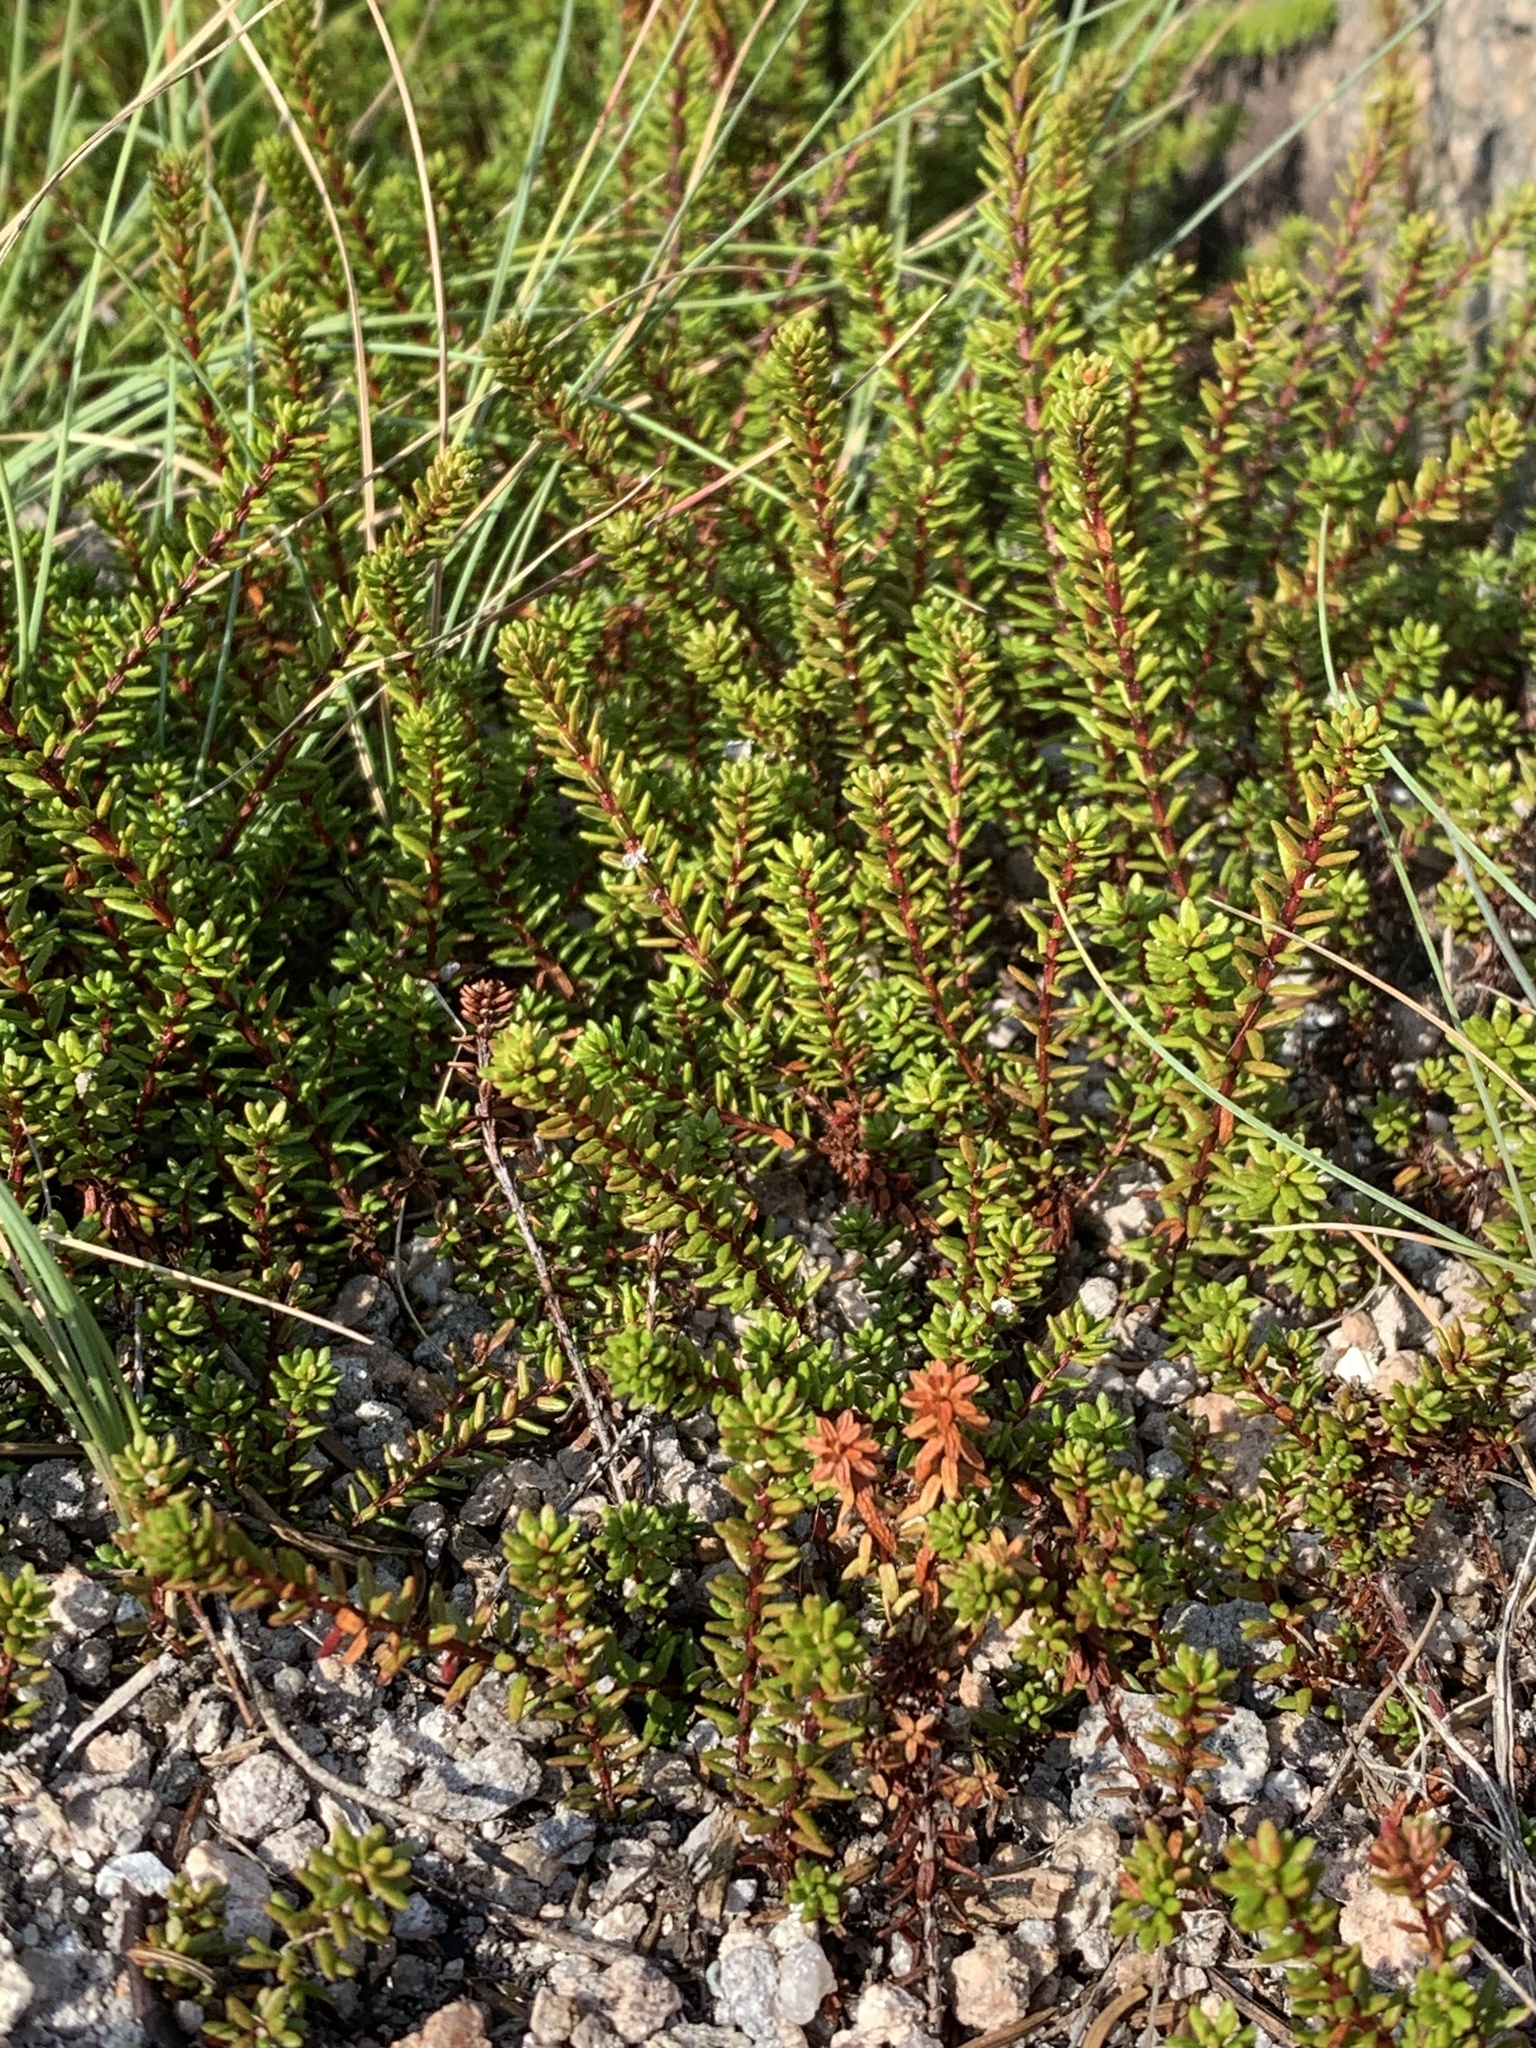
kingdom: Plantae
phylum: Tracheophyta
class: Magnoliopsida
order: Ericales
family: Ericaceae
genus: Empetrum
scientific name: Empetrum nigrum
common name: Black crowberry
